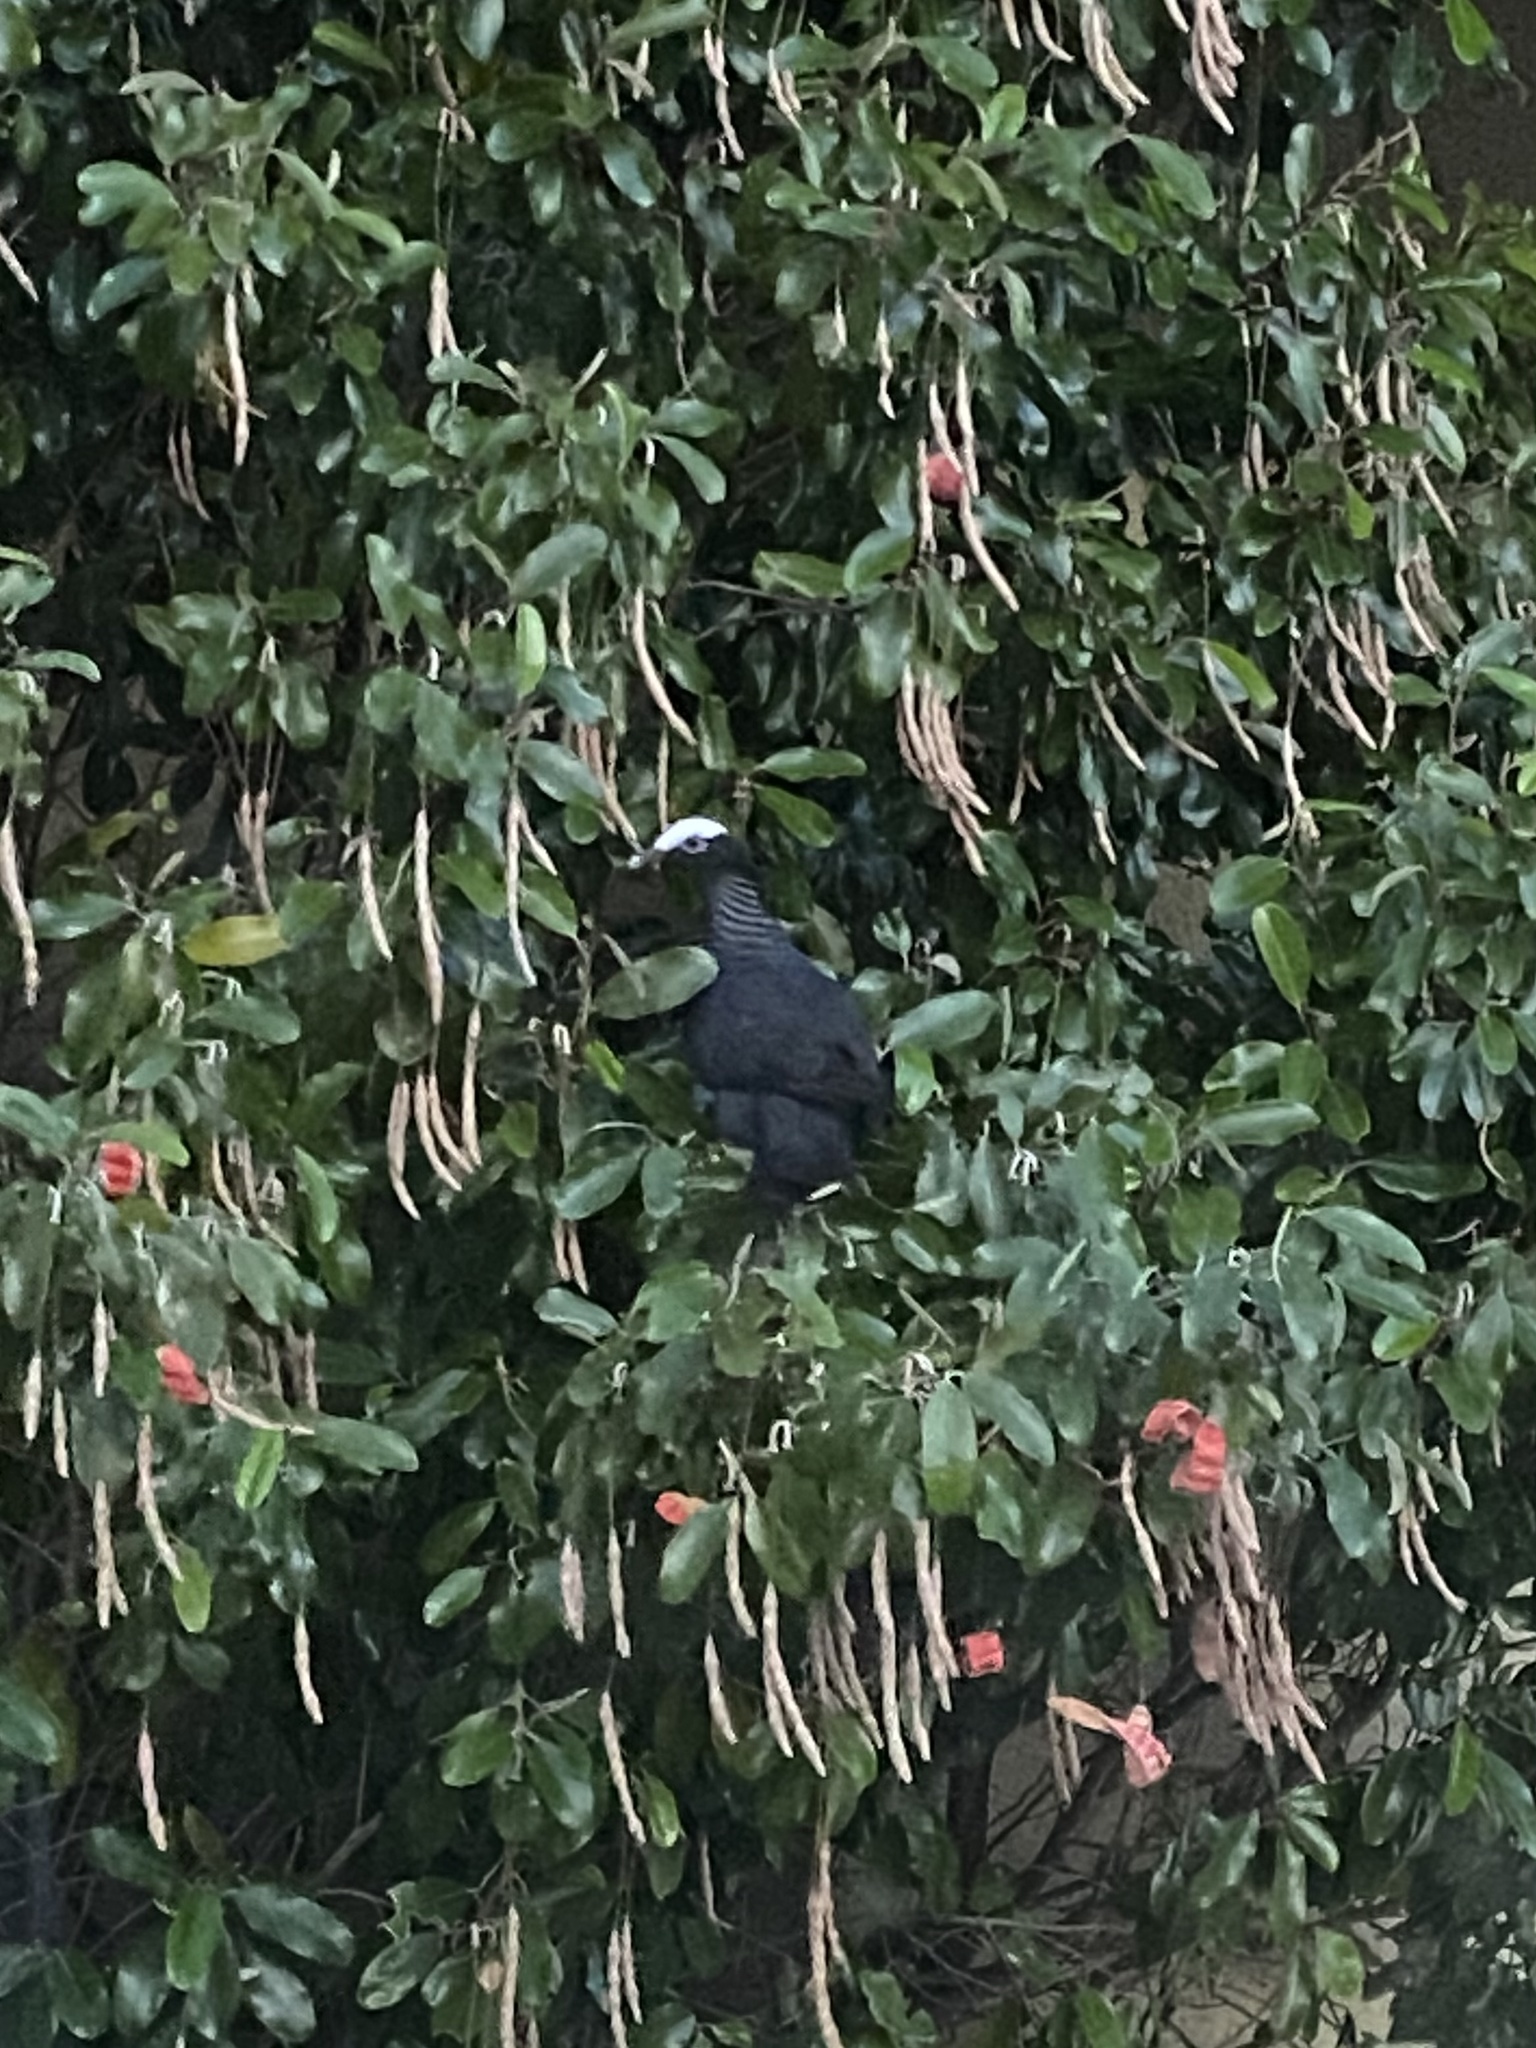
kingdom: Animalia
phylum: Chordata
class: Aves
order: Columbiformes
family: Columbidae
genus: Patagioenas
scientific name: Patagioenas leucocephala
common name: White-crowned pigeon
